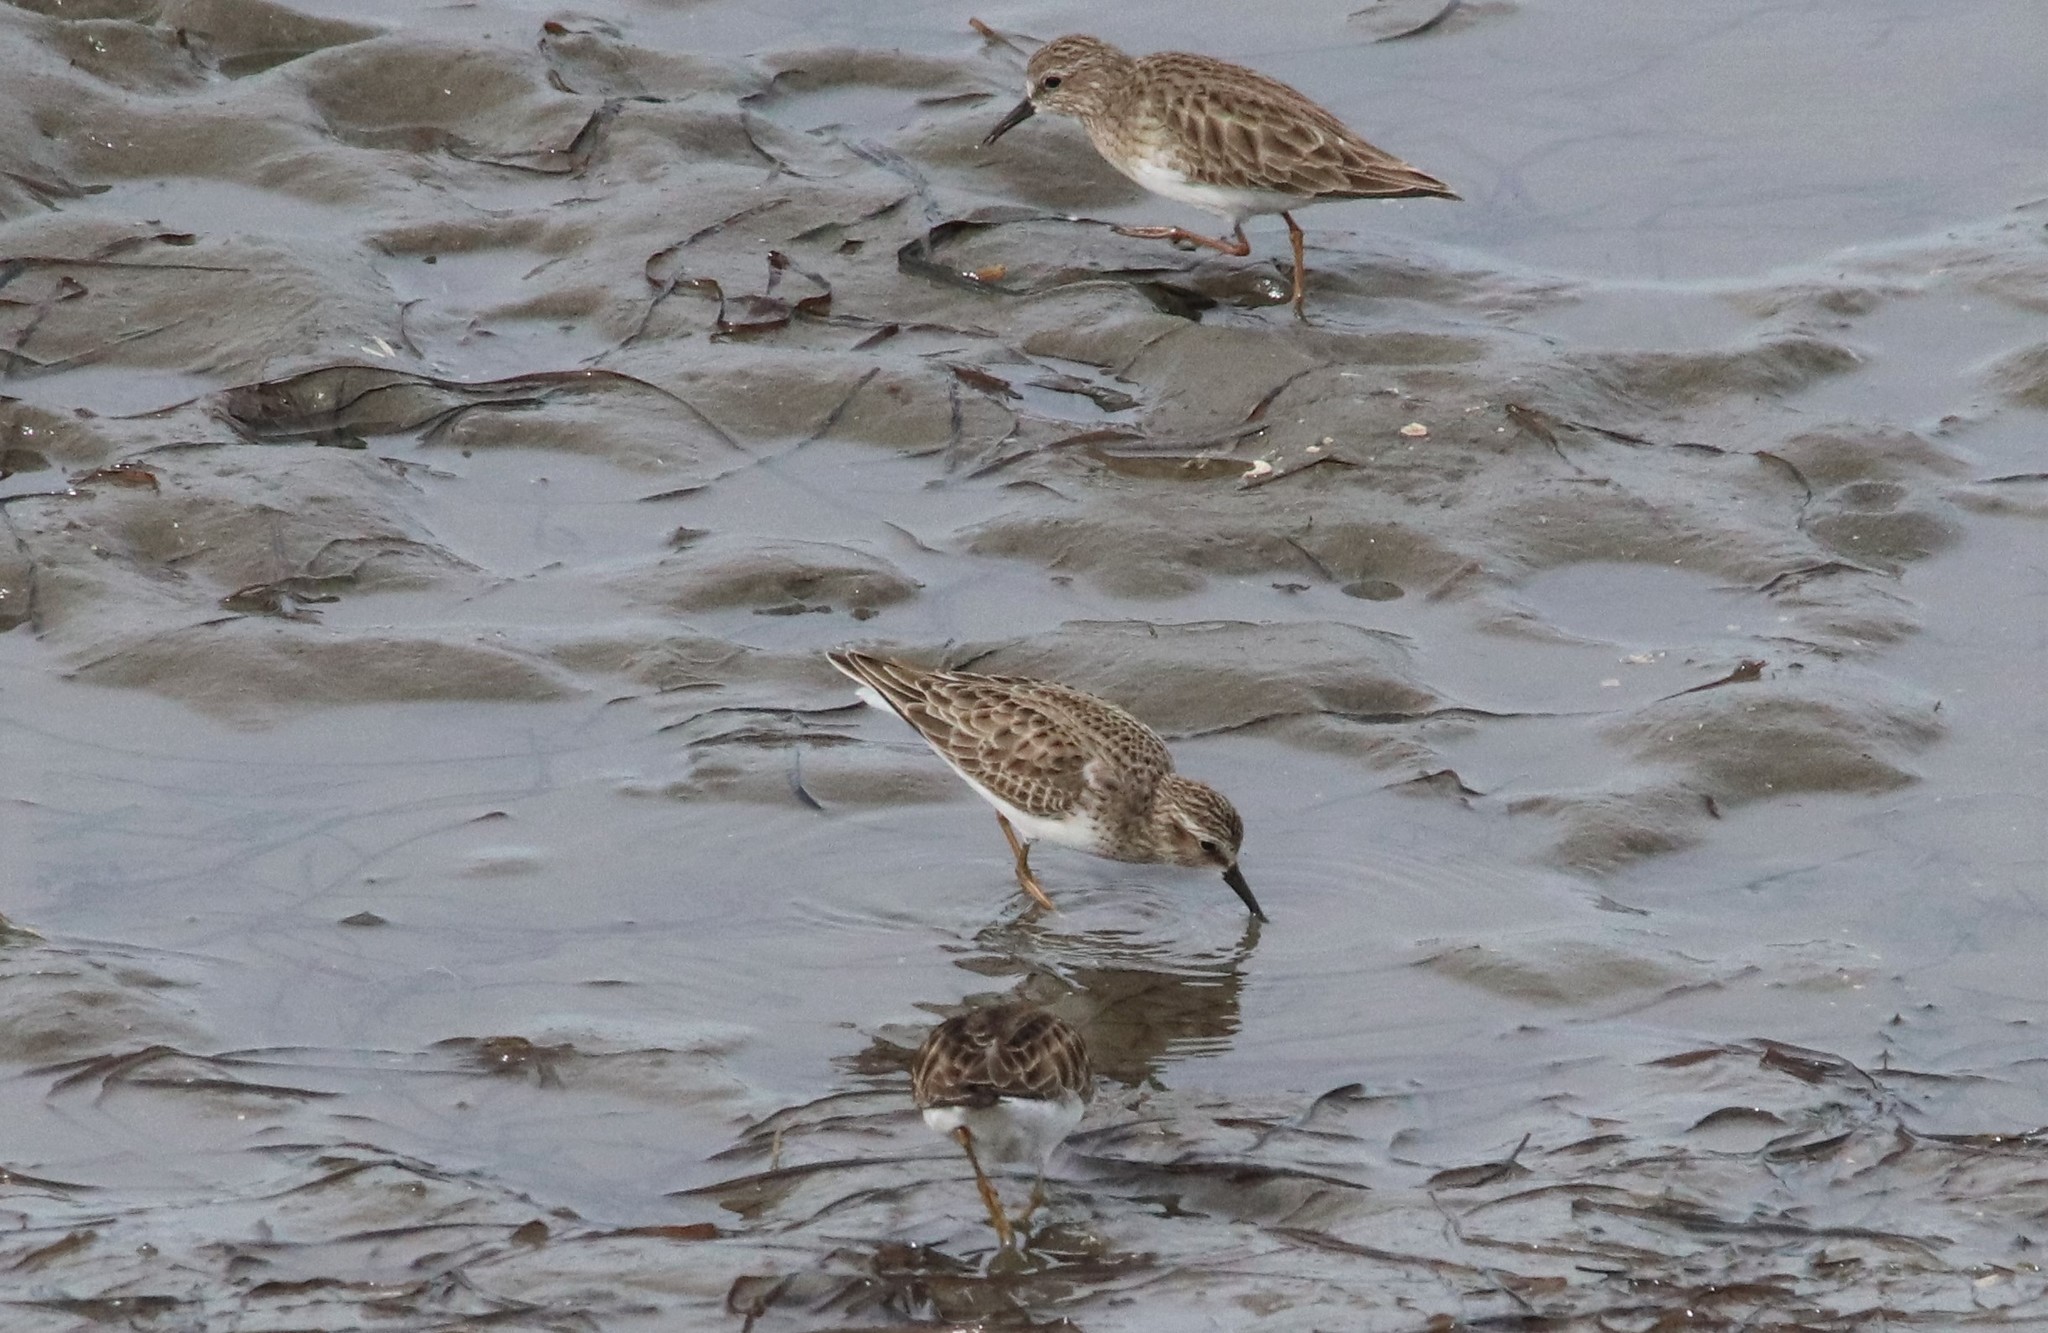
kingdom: Animalia
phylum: Chordata
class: Aves
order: Charadriiformes
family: Scolopacidae
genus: Calidris
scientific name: Calidris minutilla
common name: Least sandpiper
